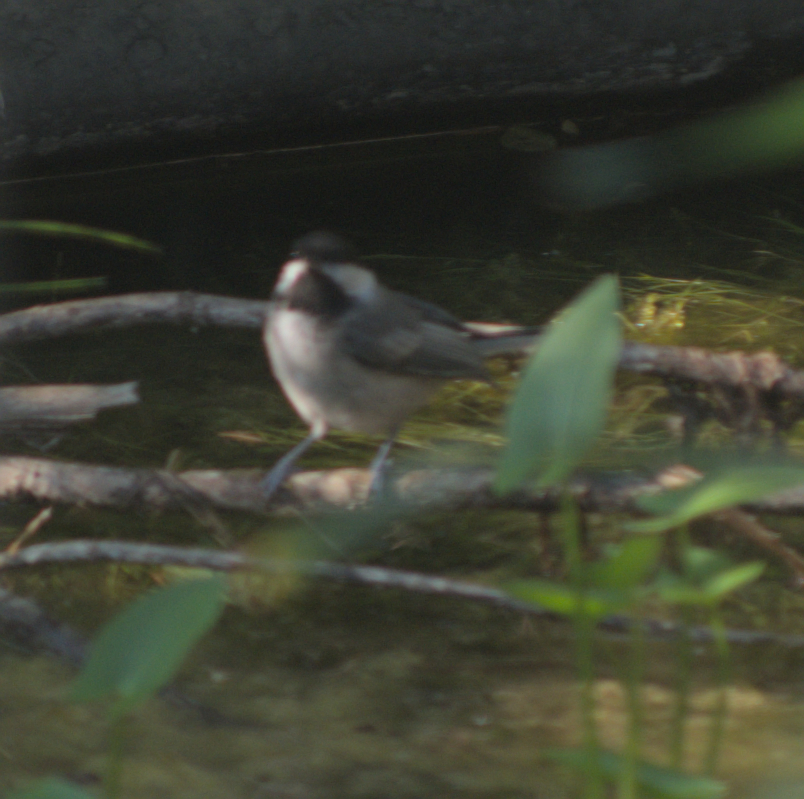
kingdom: Animalia
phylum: Chordata
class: Aves
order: Passeriformes
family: Paridae
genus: Poecile
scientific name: Poecile atricapillus
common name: Black-capped chickadee
